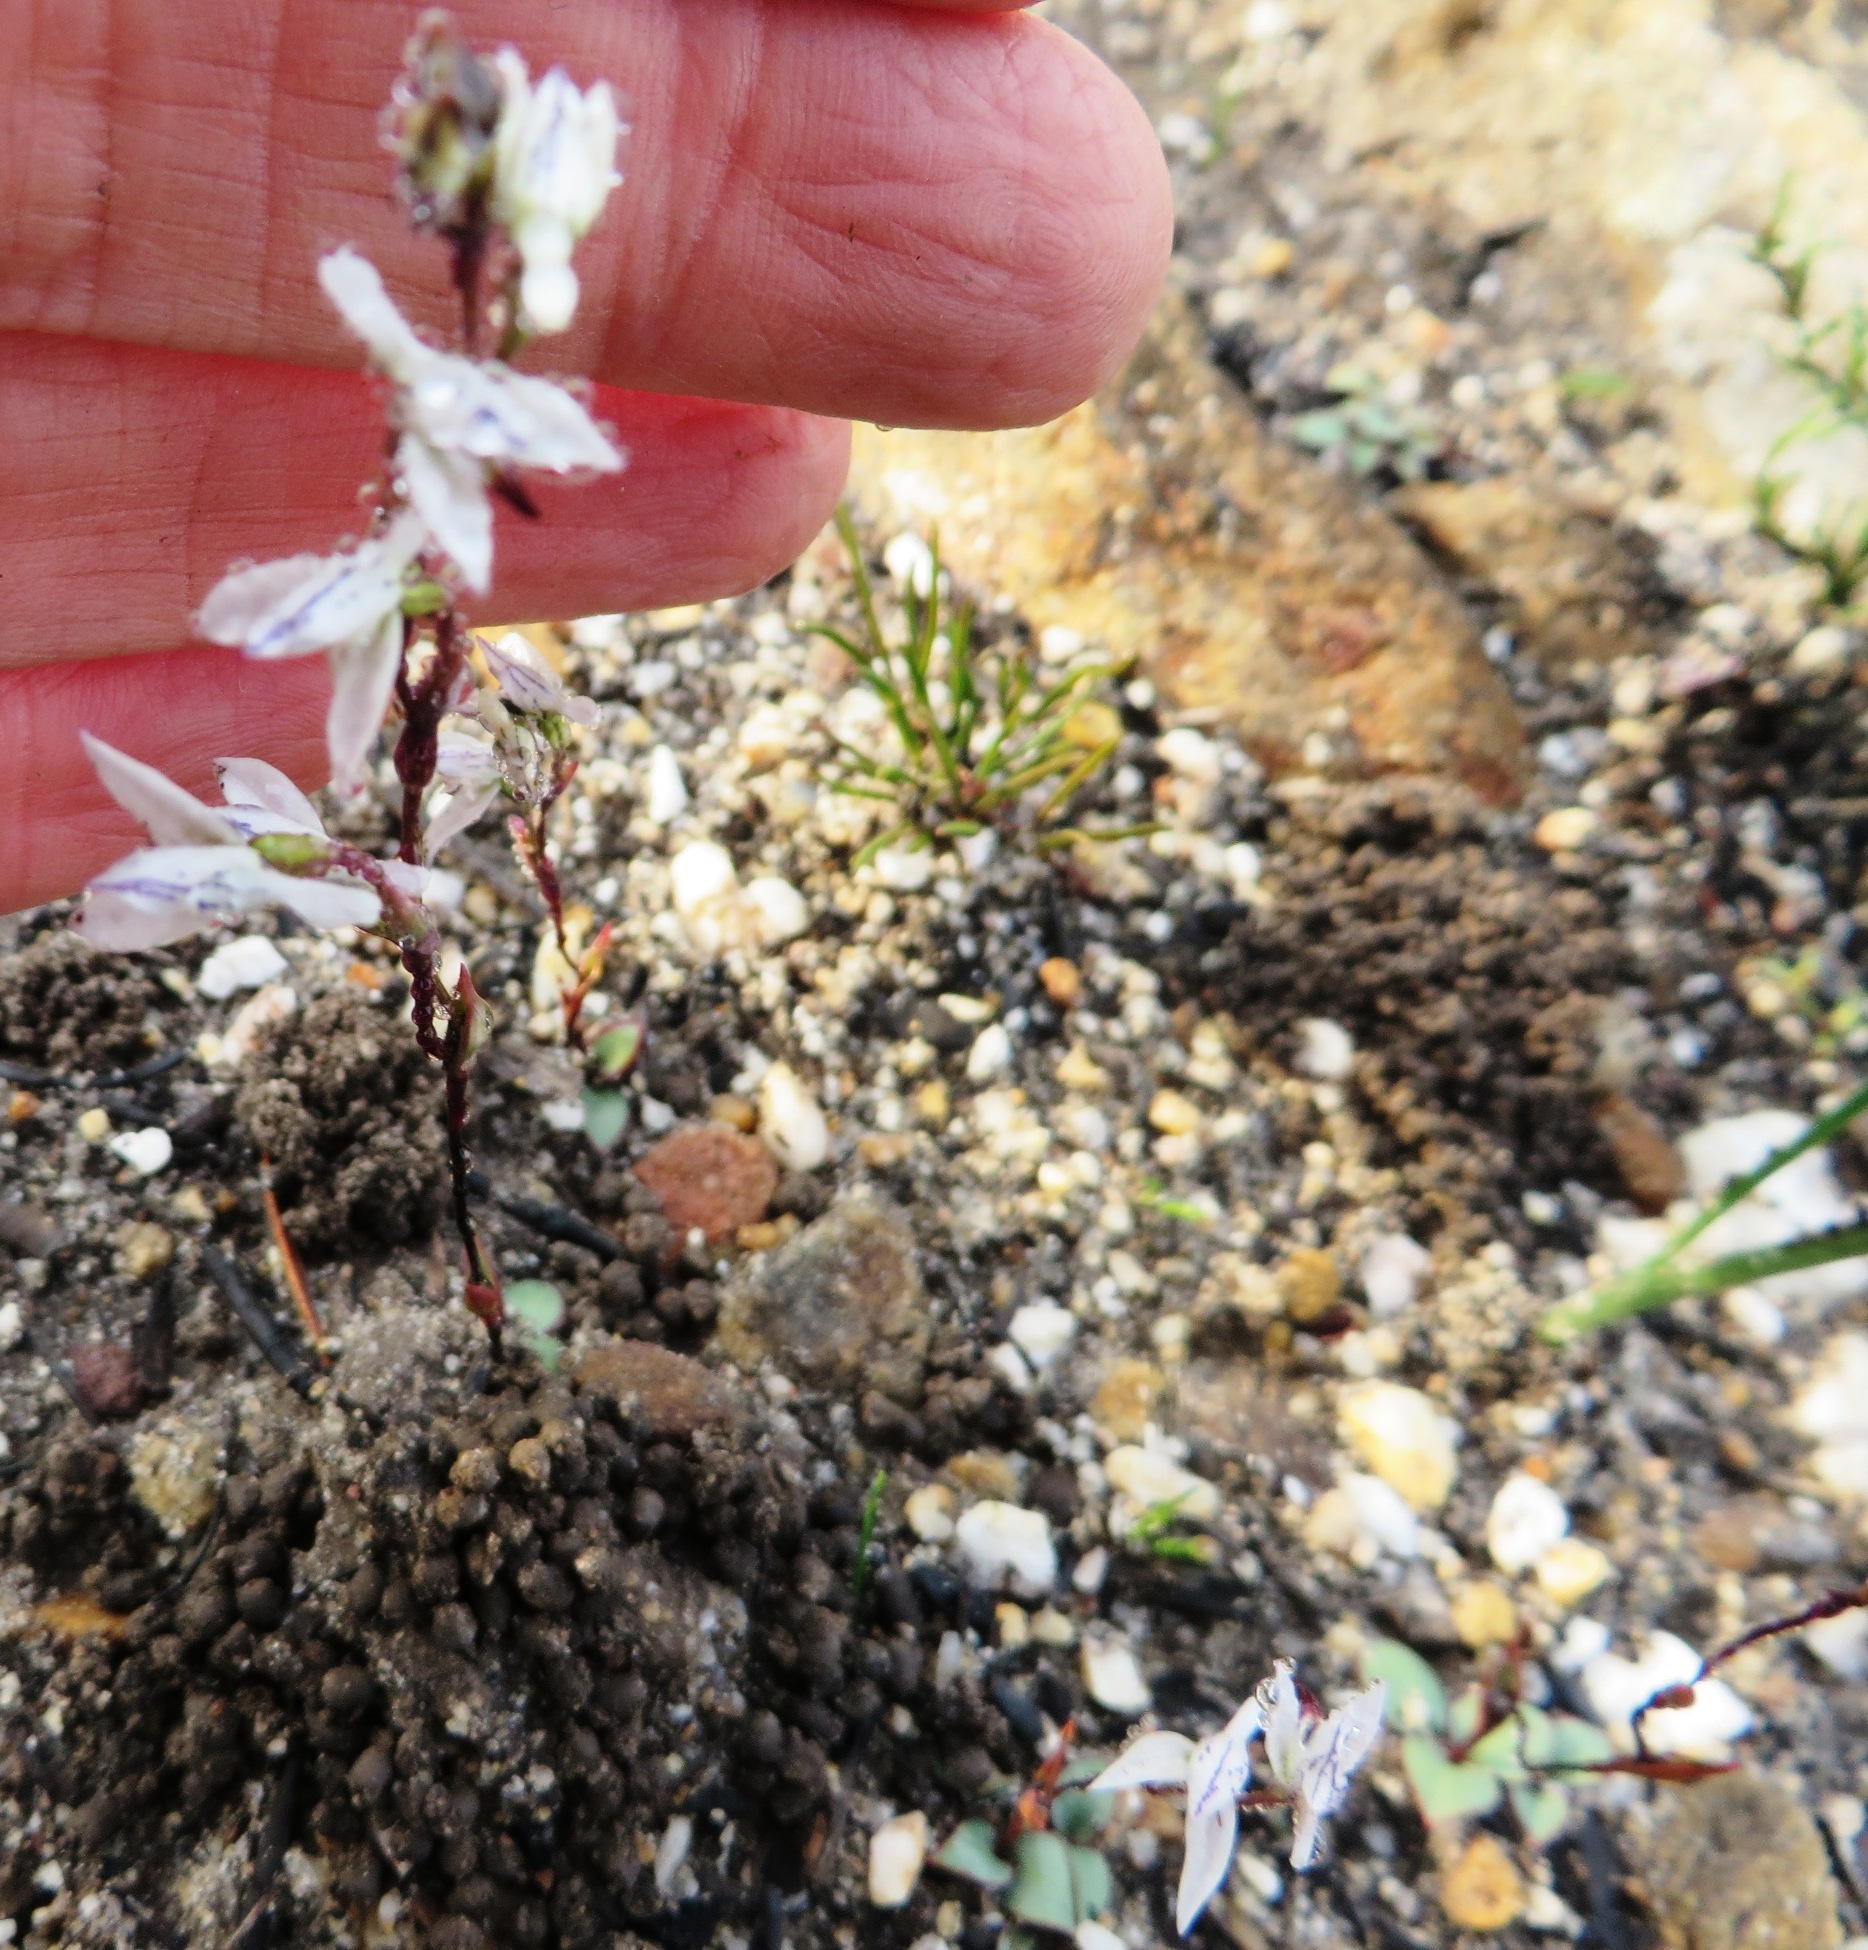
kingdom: Plantae
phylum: Tracheophyta
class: Liliopsida
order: Asparagales
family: Orchidaceae
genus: Disa
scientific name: Disa obliqua
